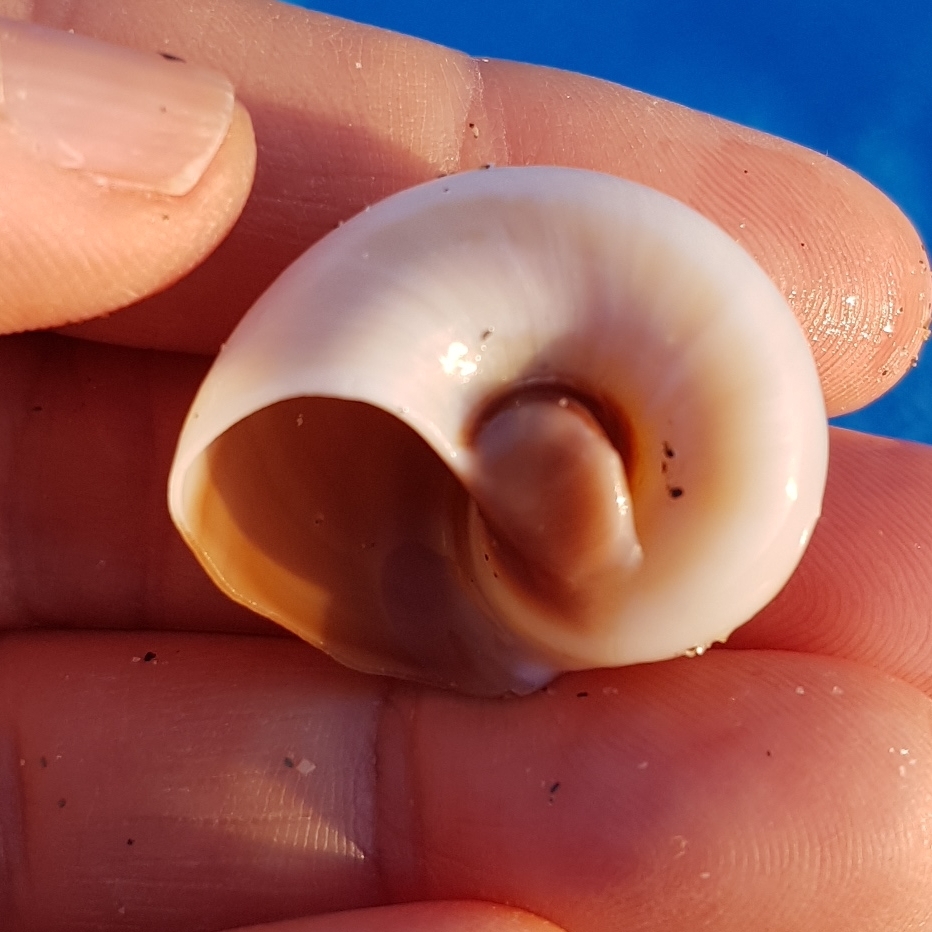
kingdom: Animalia
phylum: Mollusca
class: Gastropoda
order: Littorinimorpha
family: Naticidae
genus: Neverita
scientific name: Neverita josephinia
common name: Josephine's moonsnail
